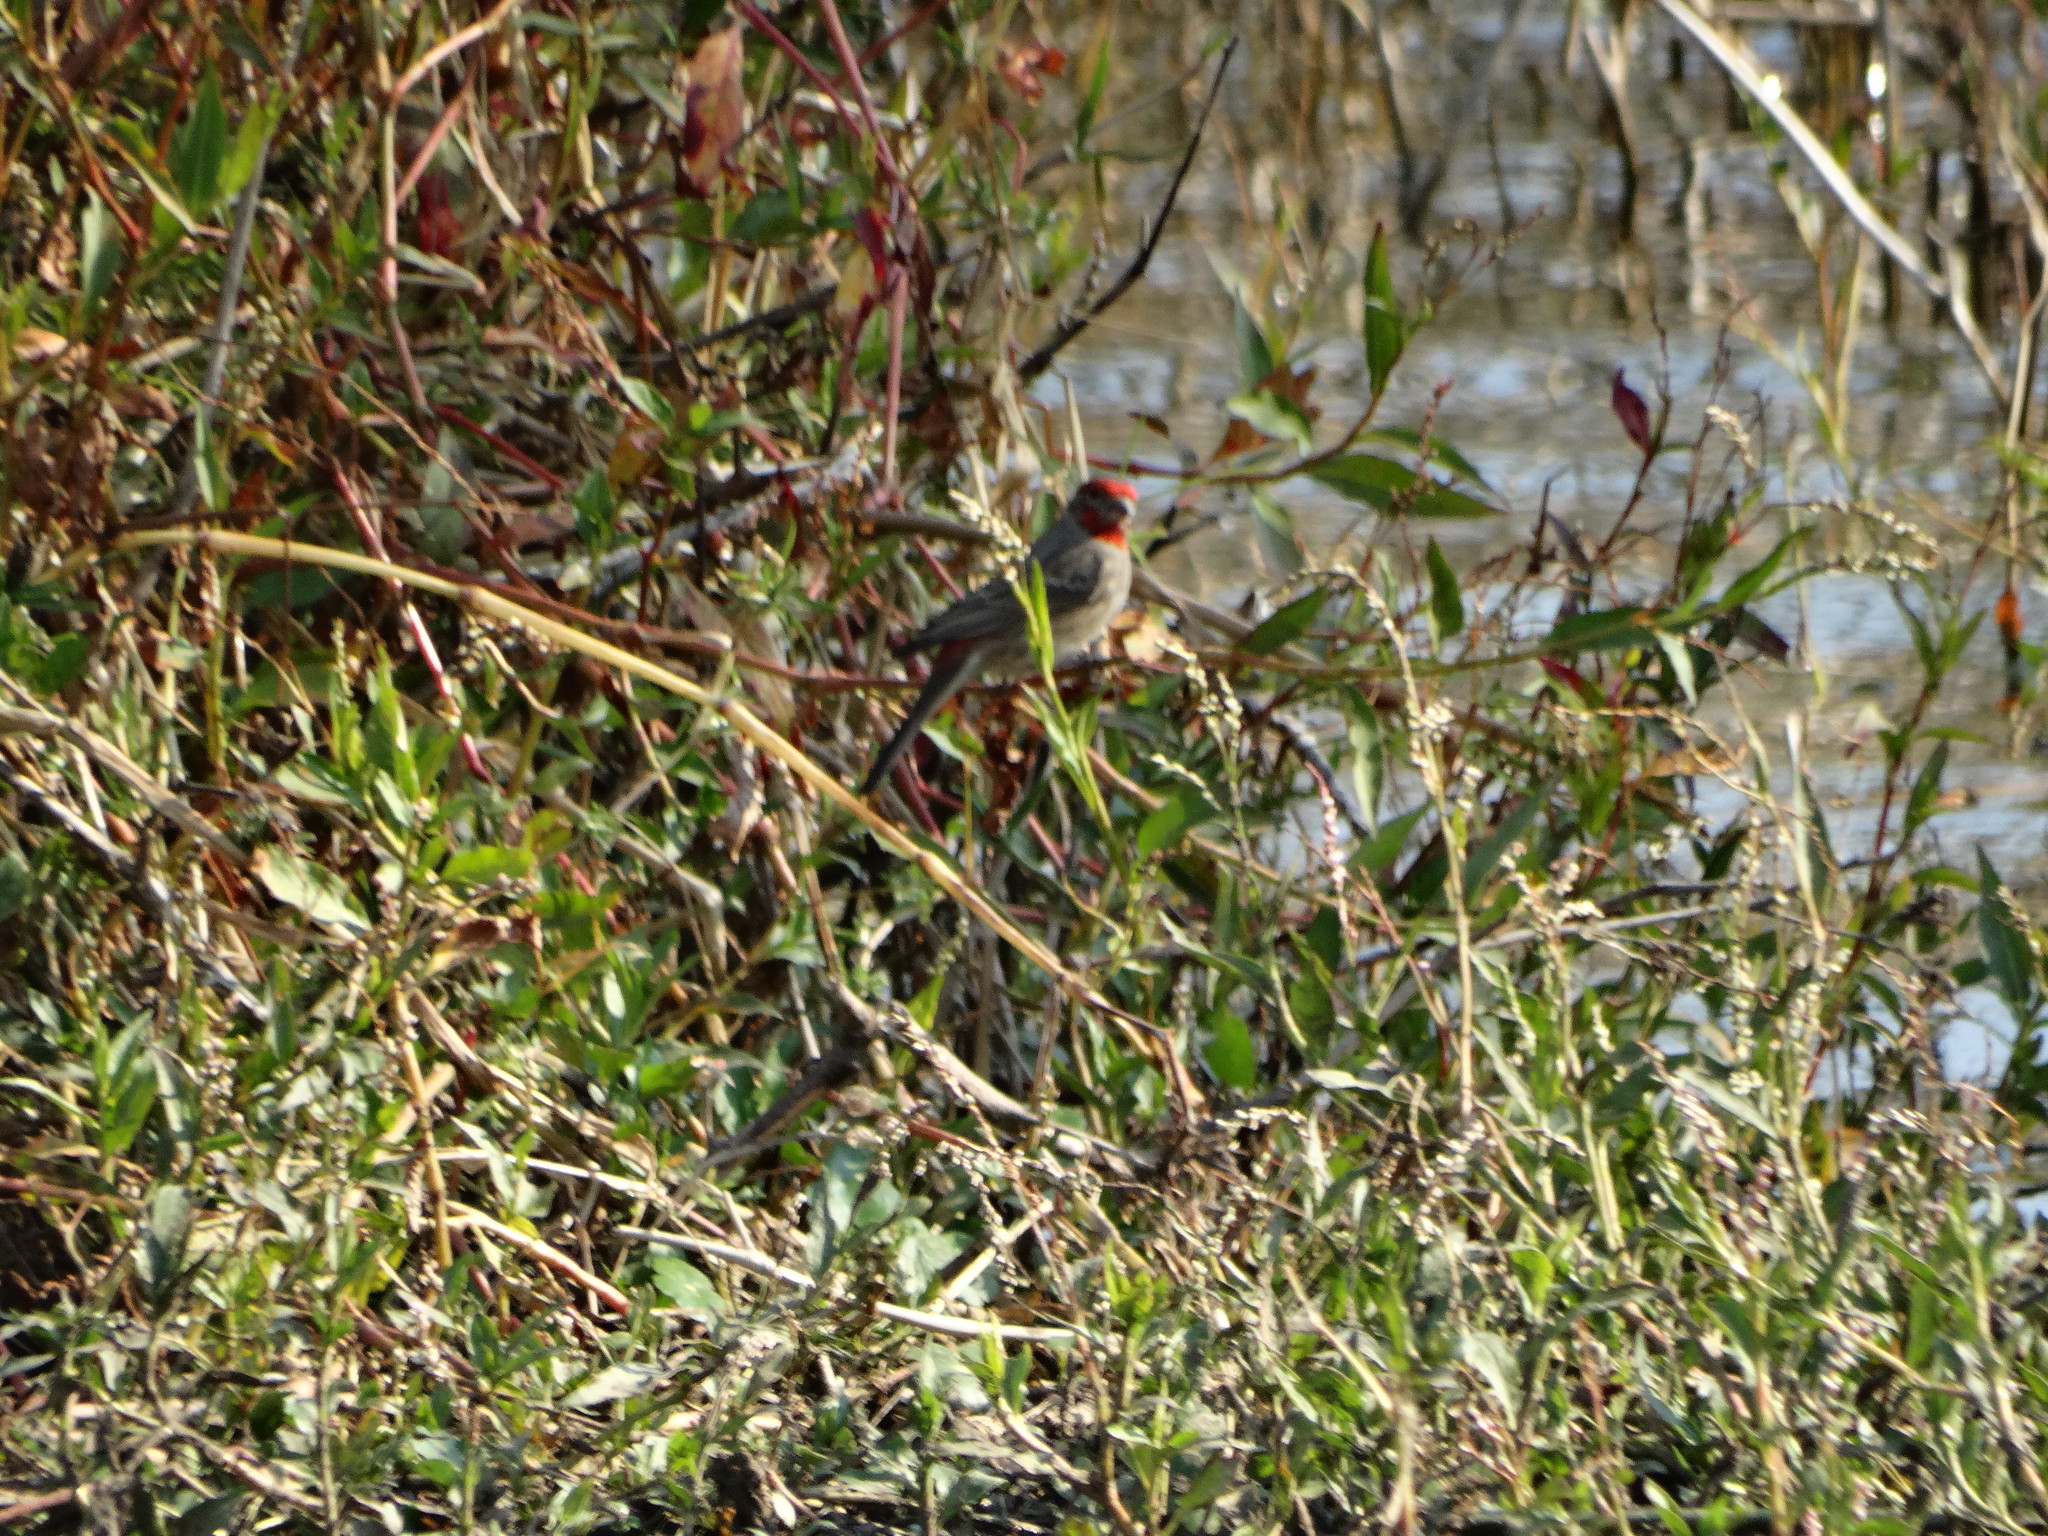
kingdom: Animalia
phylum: Chordata
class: Aves
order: Passeriformes
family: Fringillidae
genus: Haemorhous
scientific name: Haemorhous mexicanus
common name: House finch
